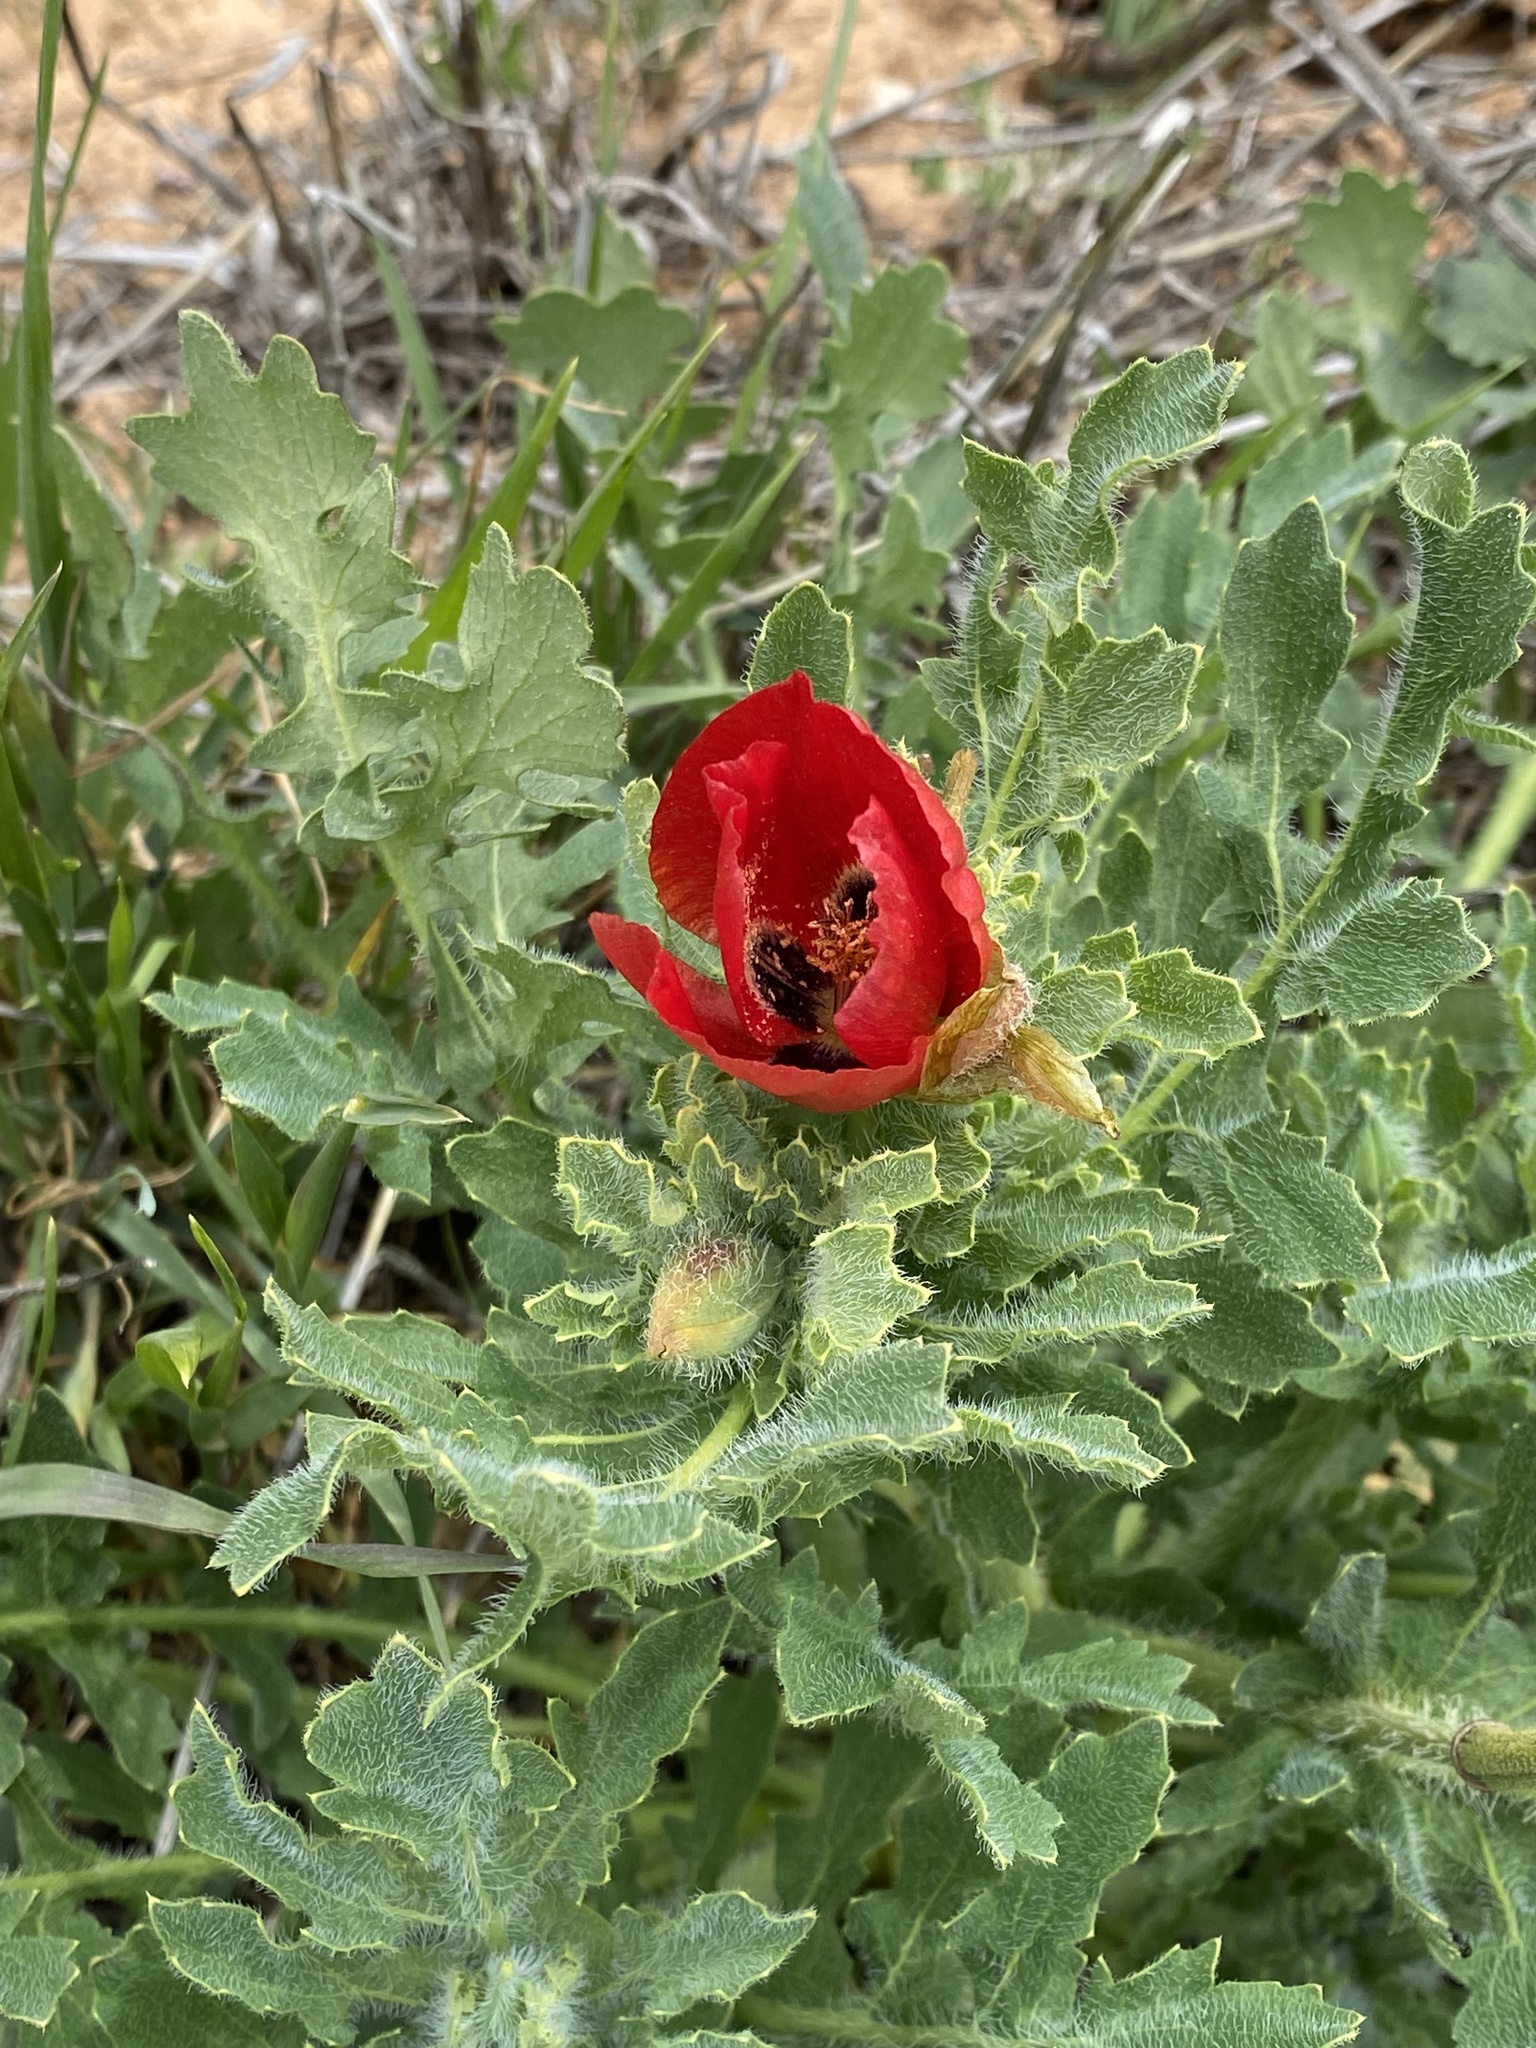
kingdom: Plantae
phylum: Tracheophyta
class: Magnoliopsida
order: Ranunculales
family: Papaveraceae
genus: Glaucium
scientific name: Glaucium corniculatum
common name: Red horned-poppy
